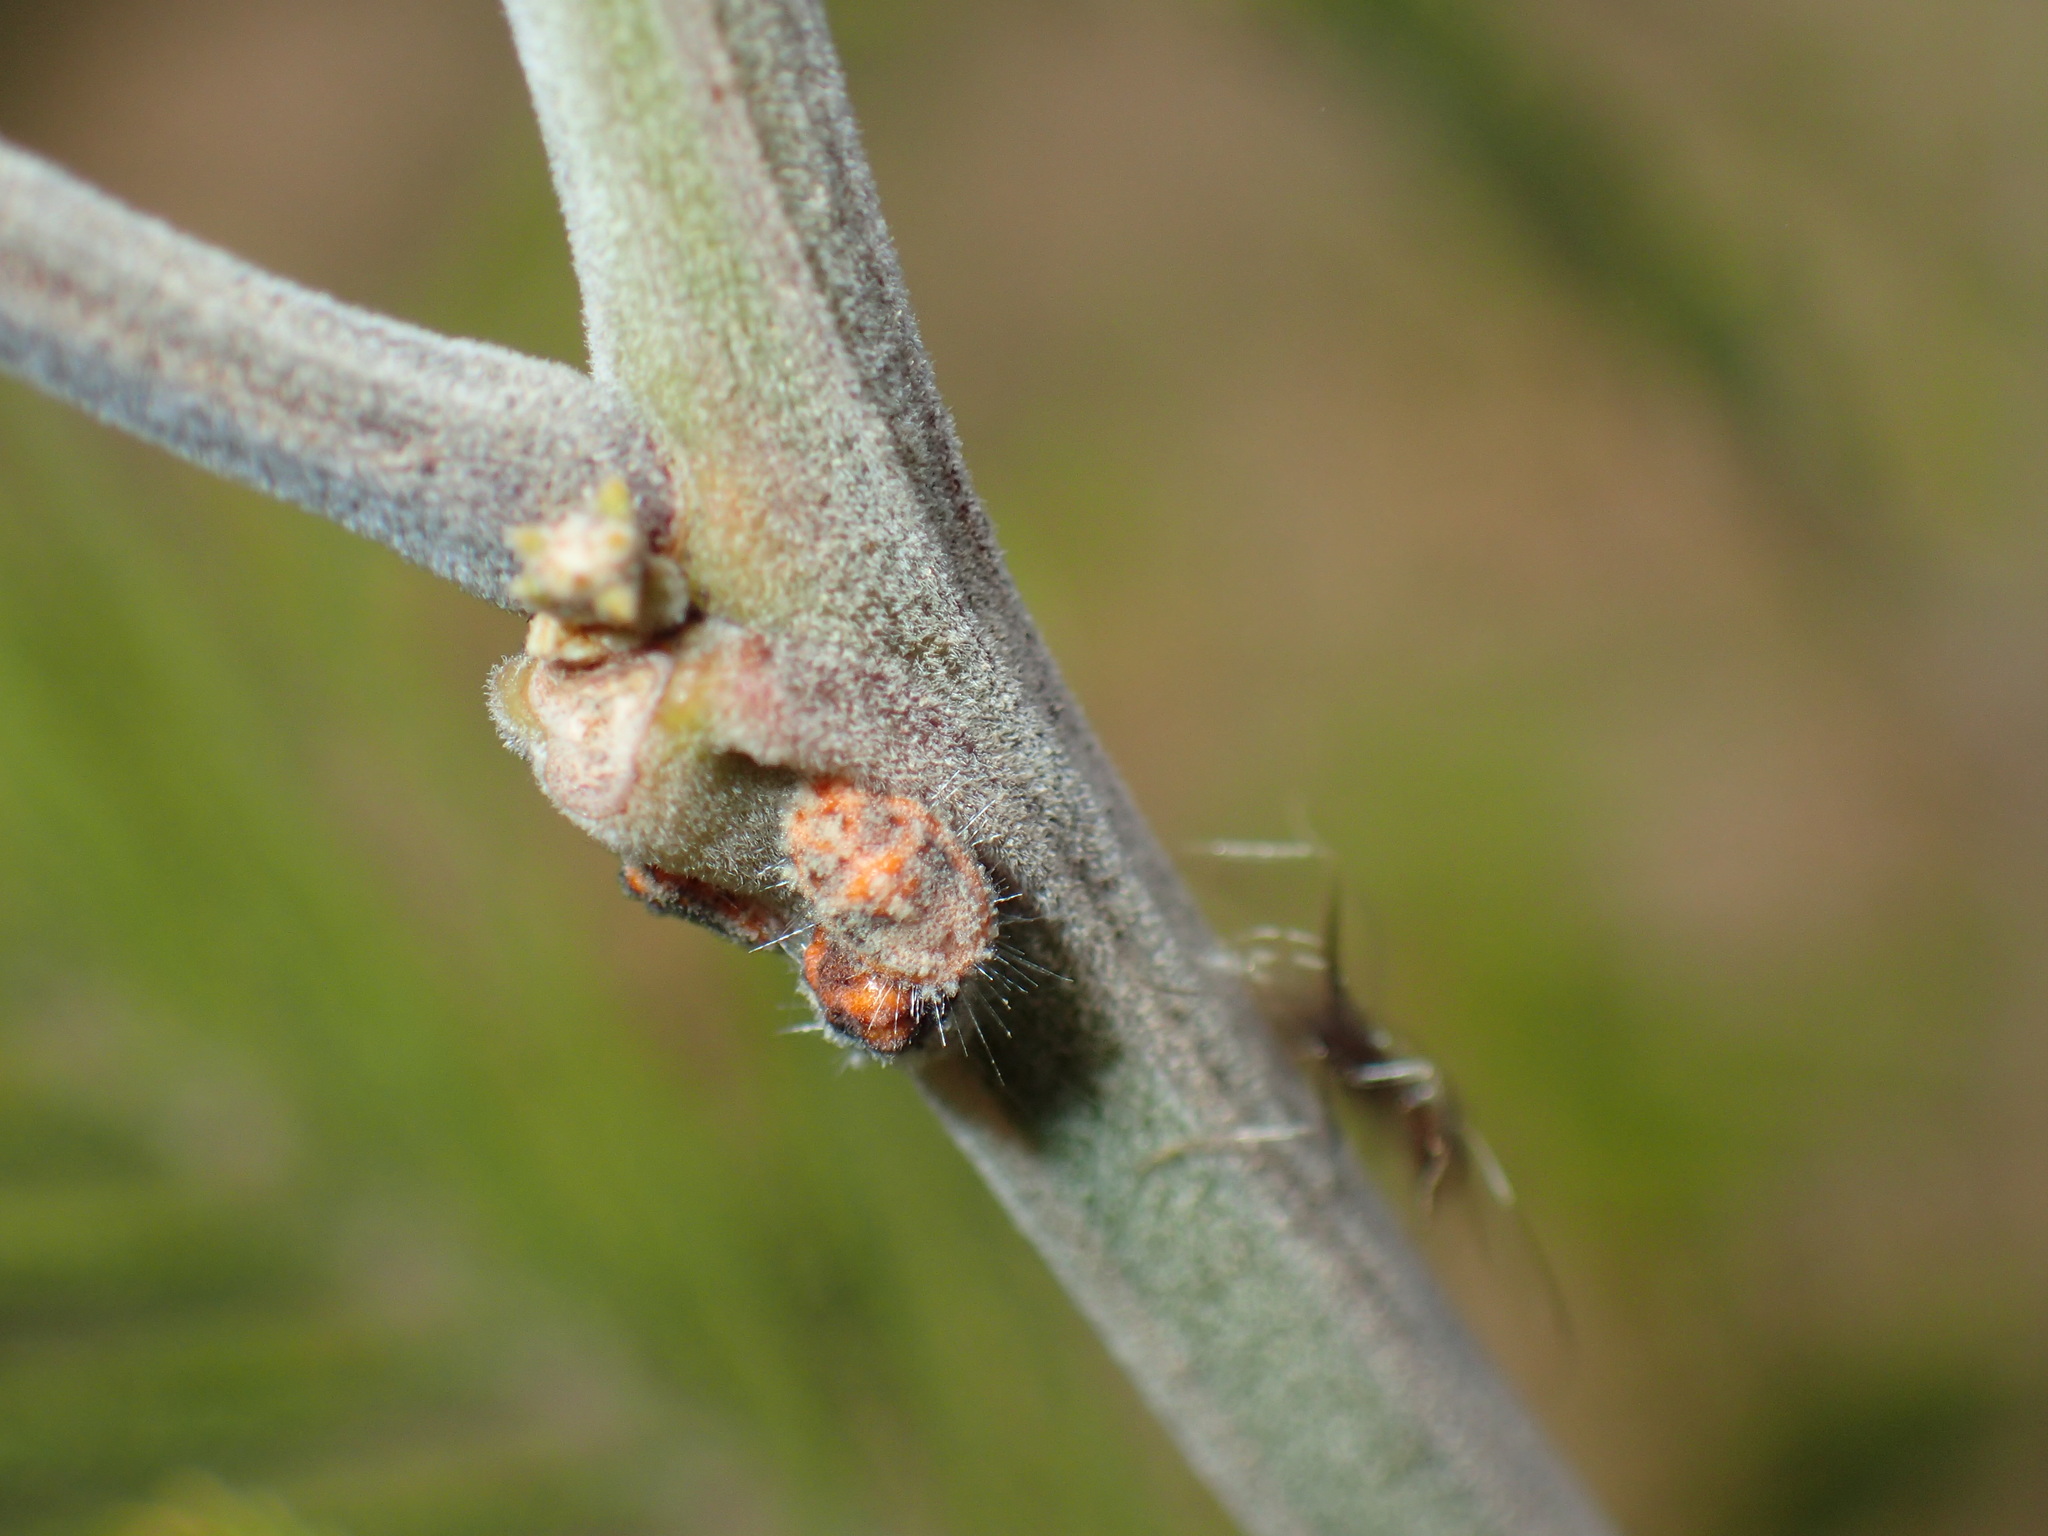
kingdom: Animalia
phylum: Arthropoda
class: Insecta
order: Hemiptera
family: Margarodidae
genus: Icerya
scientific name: Icerya purchasi
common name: Cottony cushion scale
